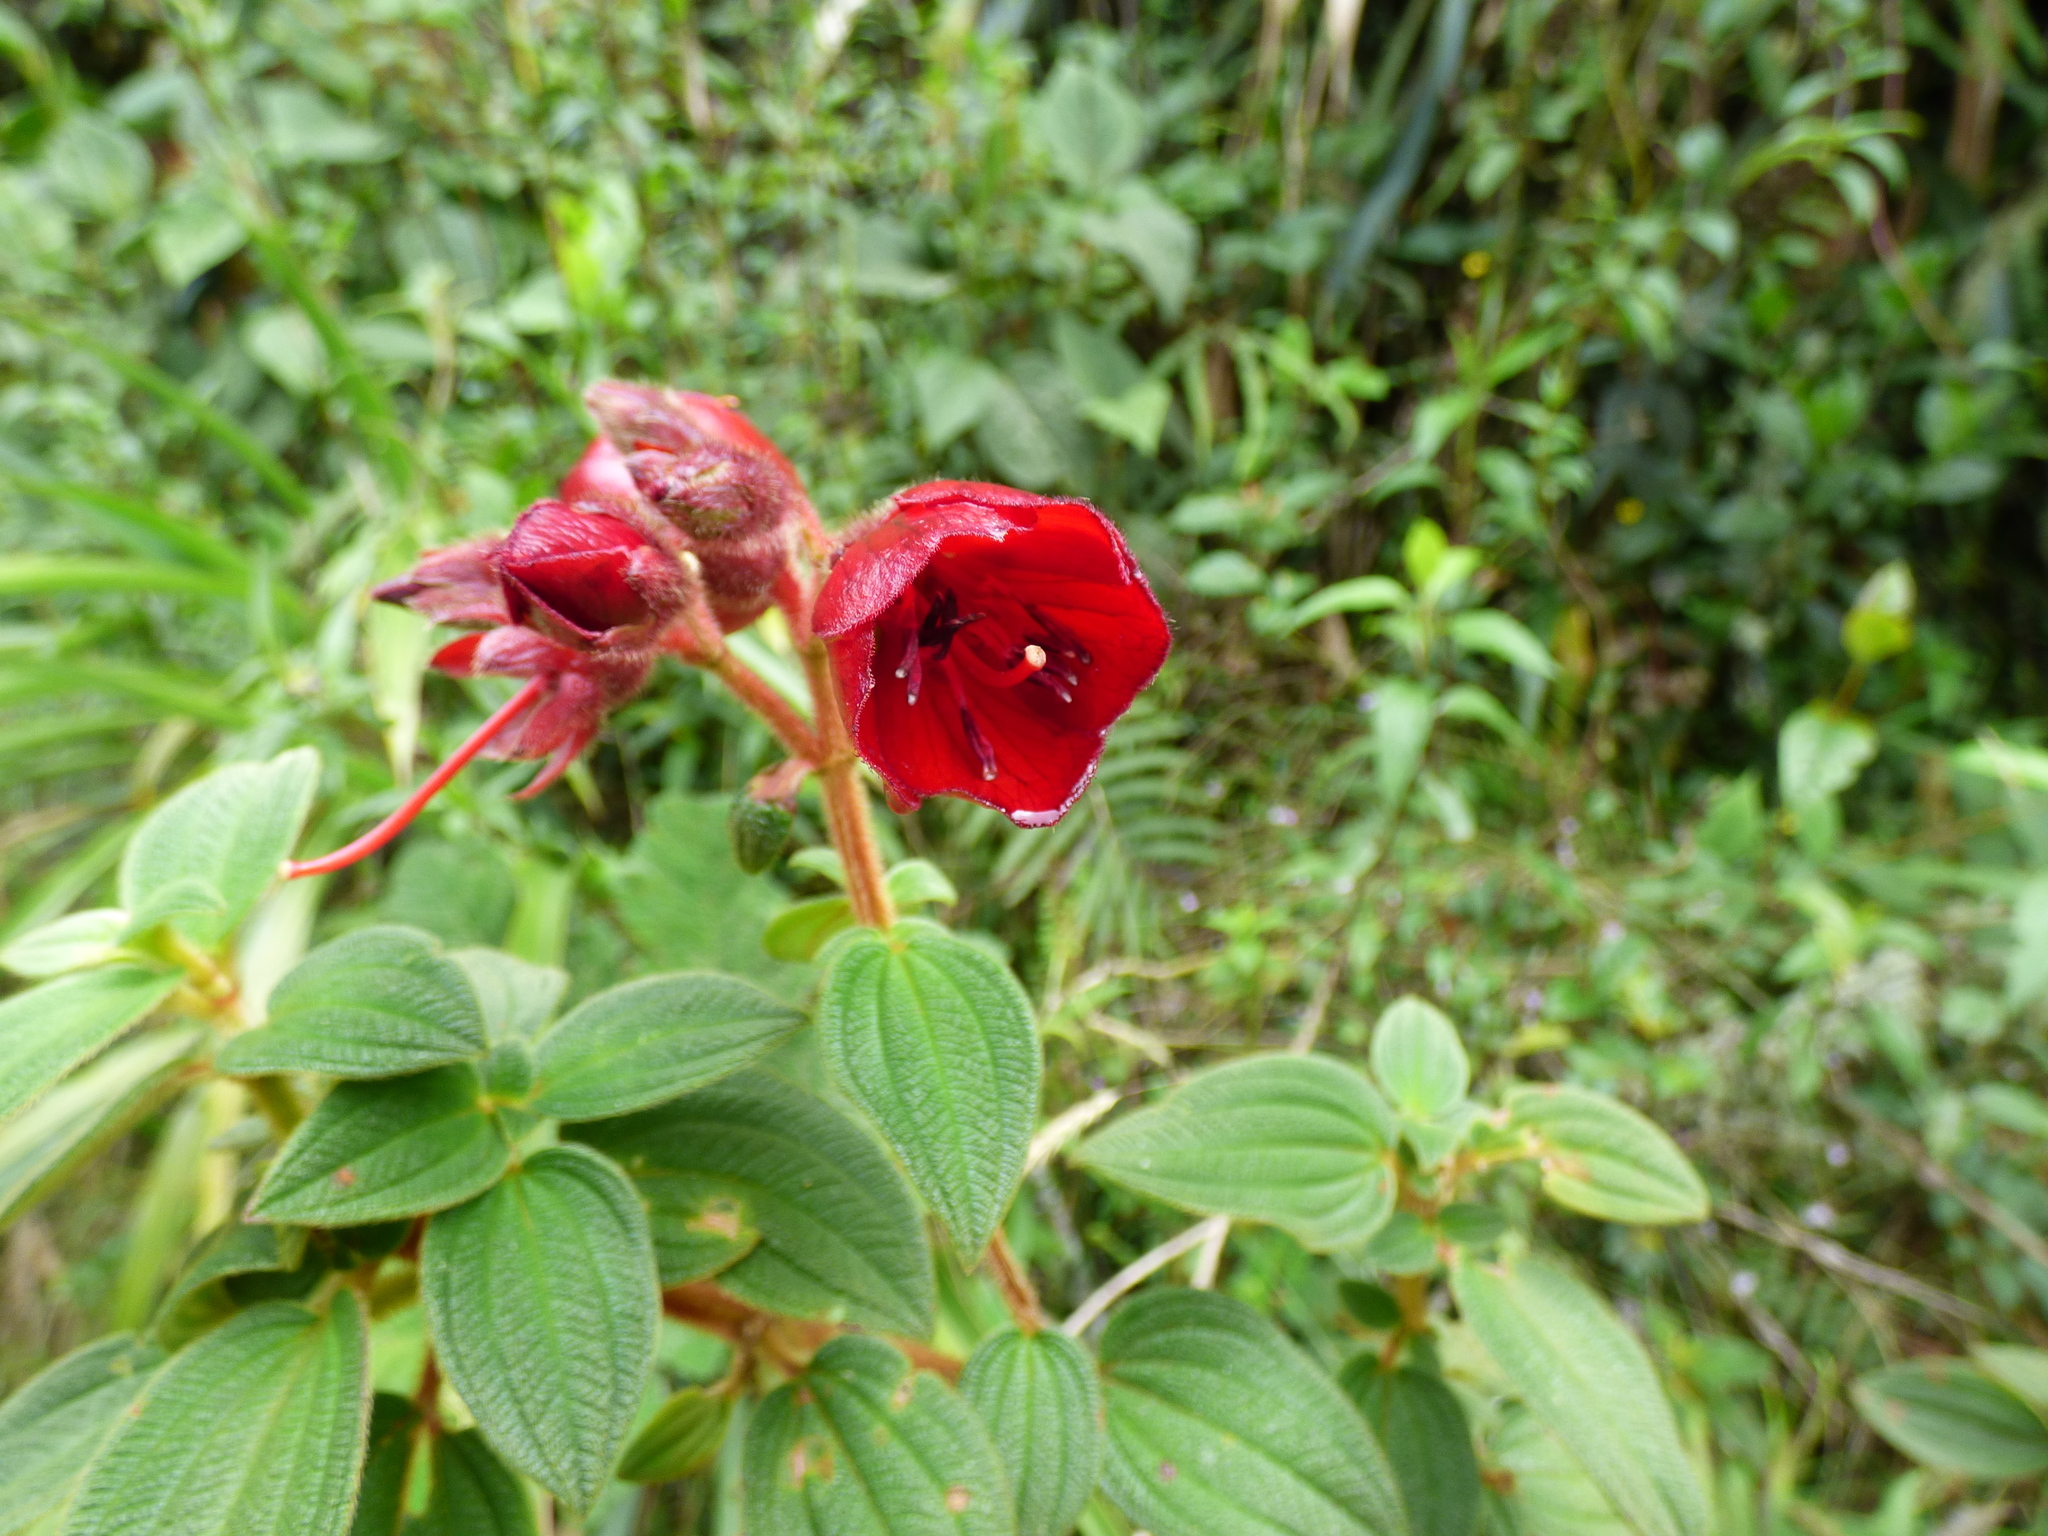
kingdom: Plantae
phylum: Tracheophyta
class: Magnoliopsida
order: Myrtales
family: Melastomataceae
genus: Chaetogastra
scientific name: Chaetogastra grossa
